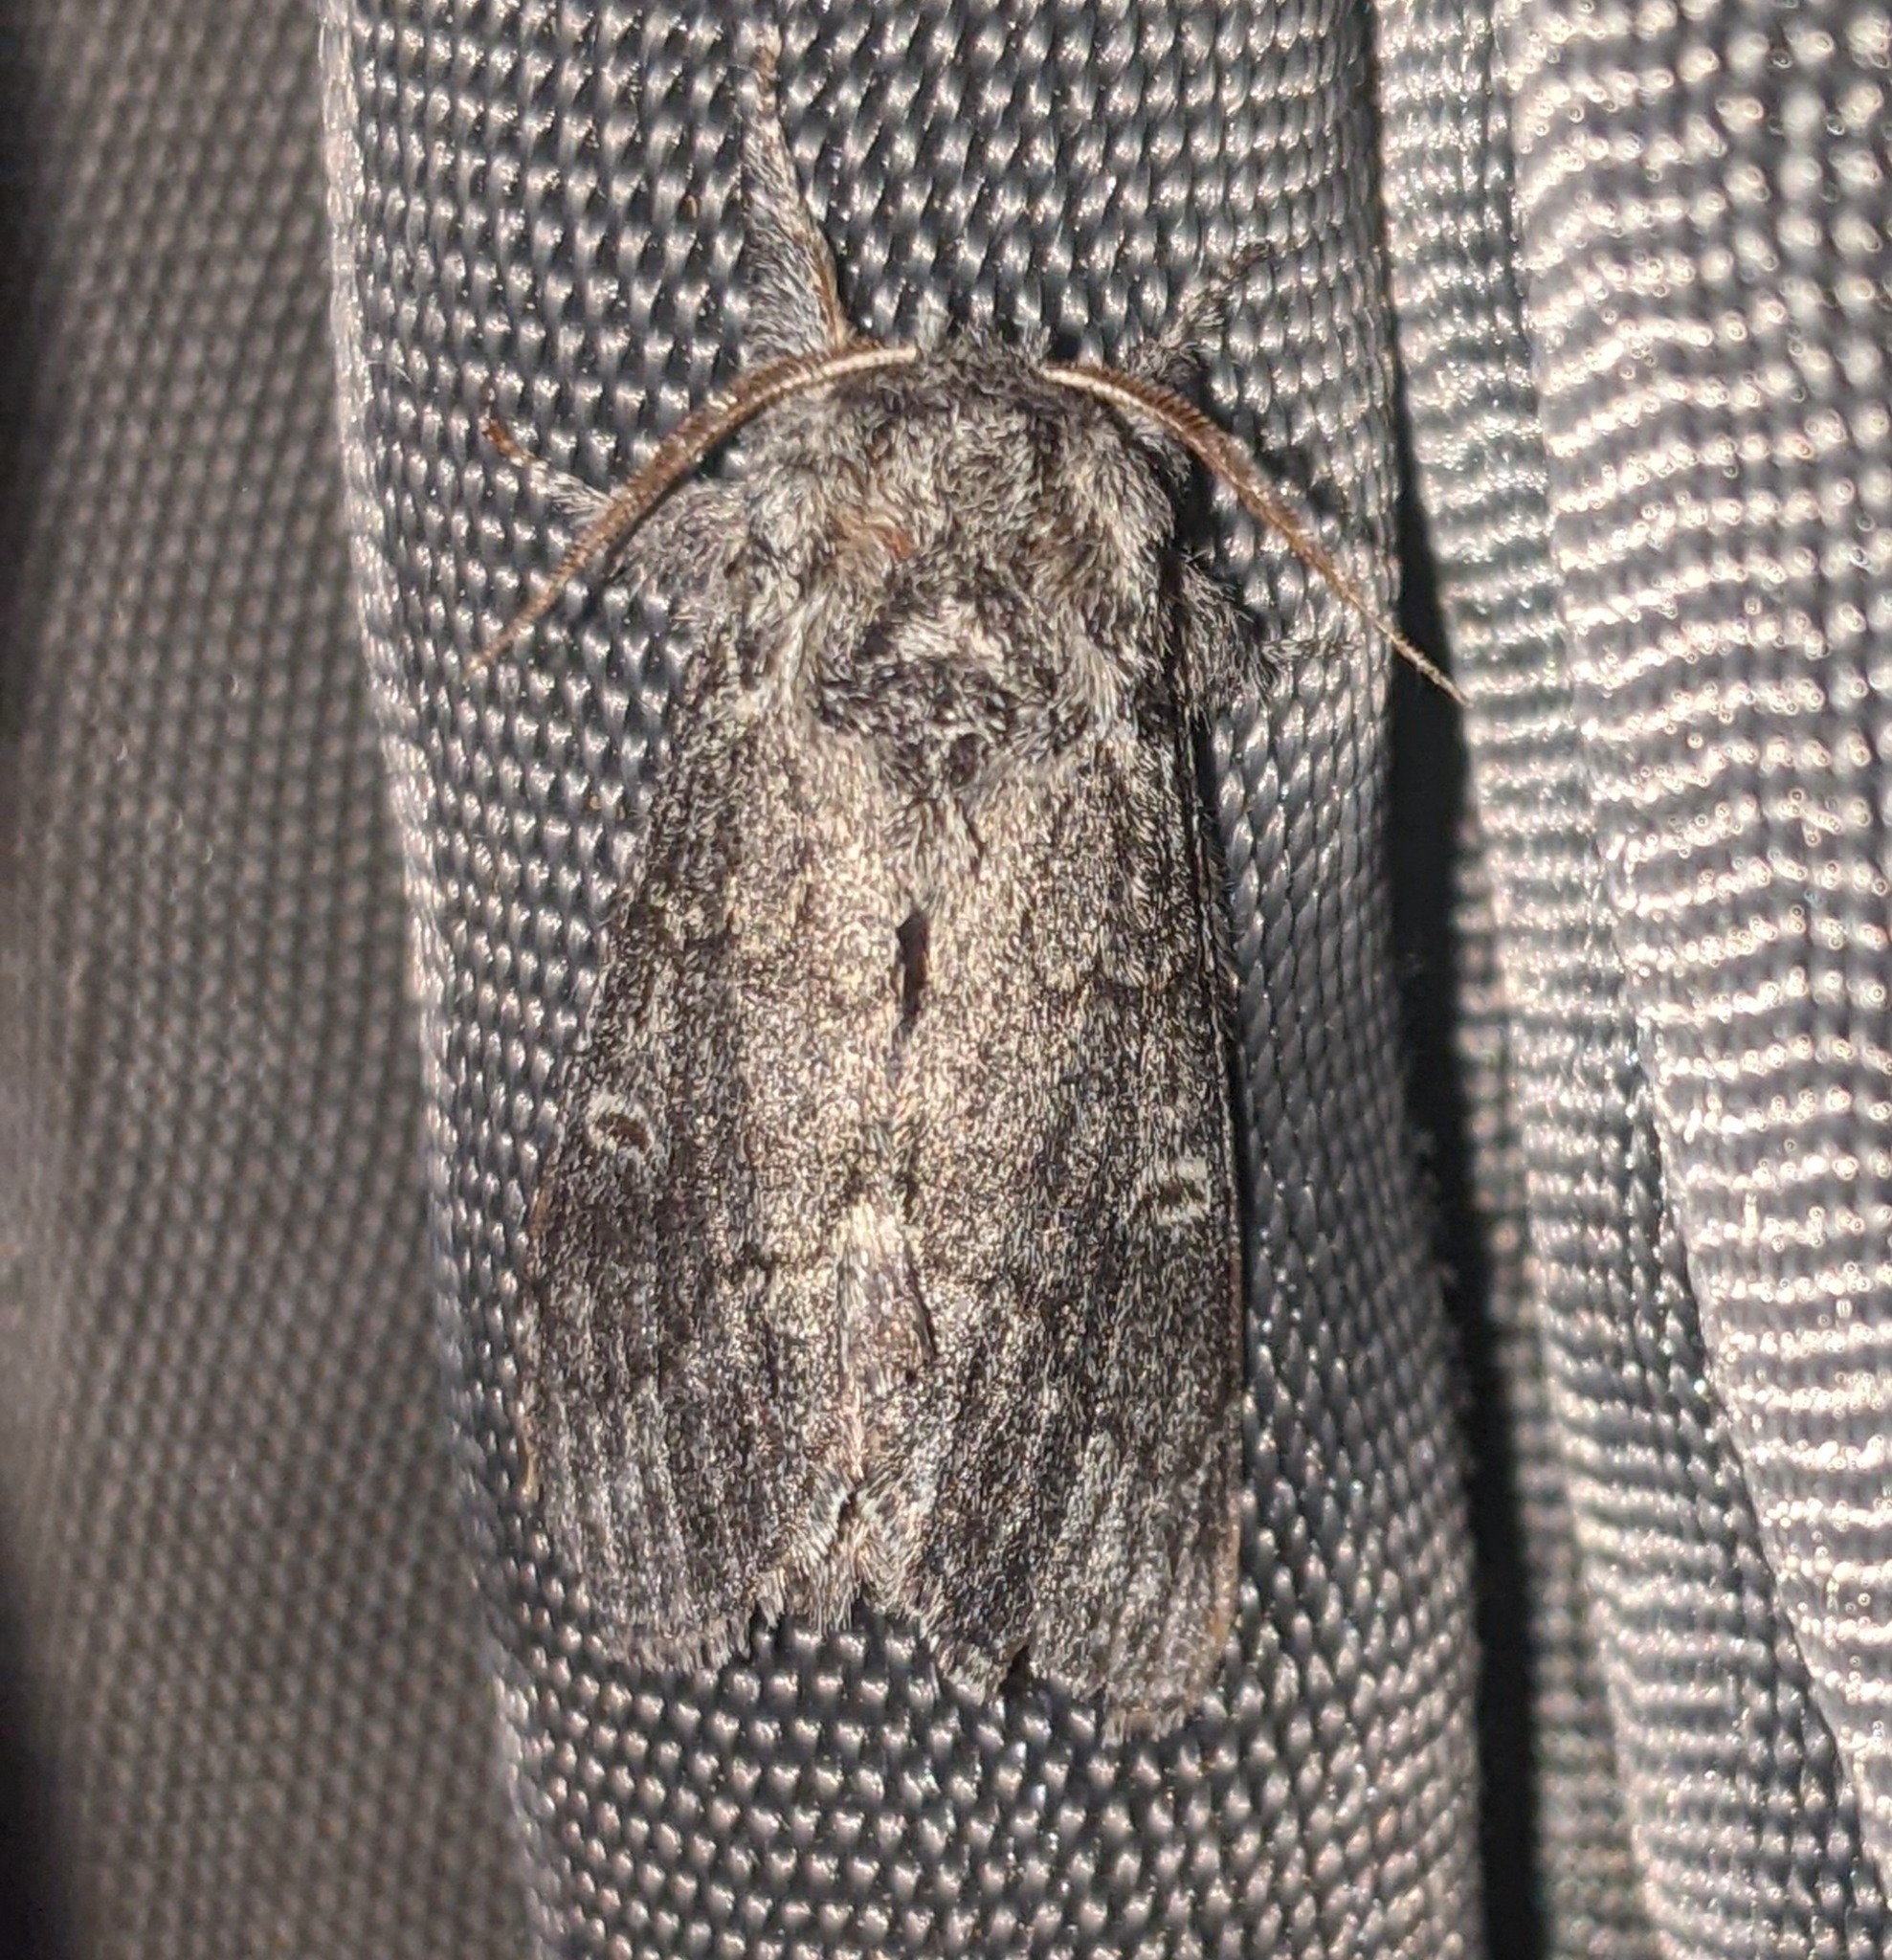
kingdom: Animalia
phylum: Arthropoda
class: Insecta
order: Lepidoptera
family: Notodontidae
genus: Notodonta
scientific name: Notodonta torva
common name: Large dark prominent
